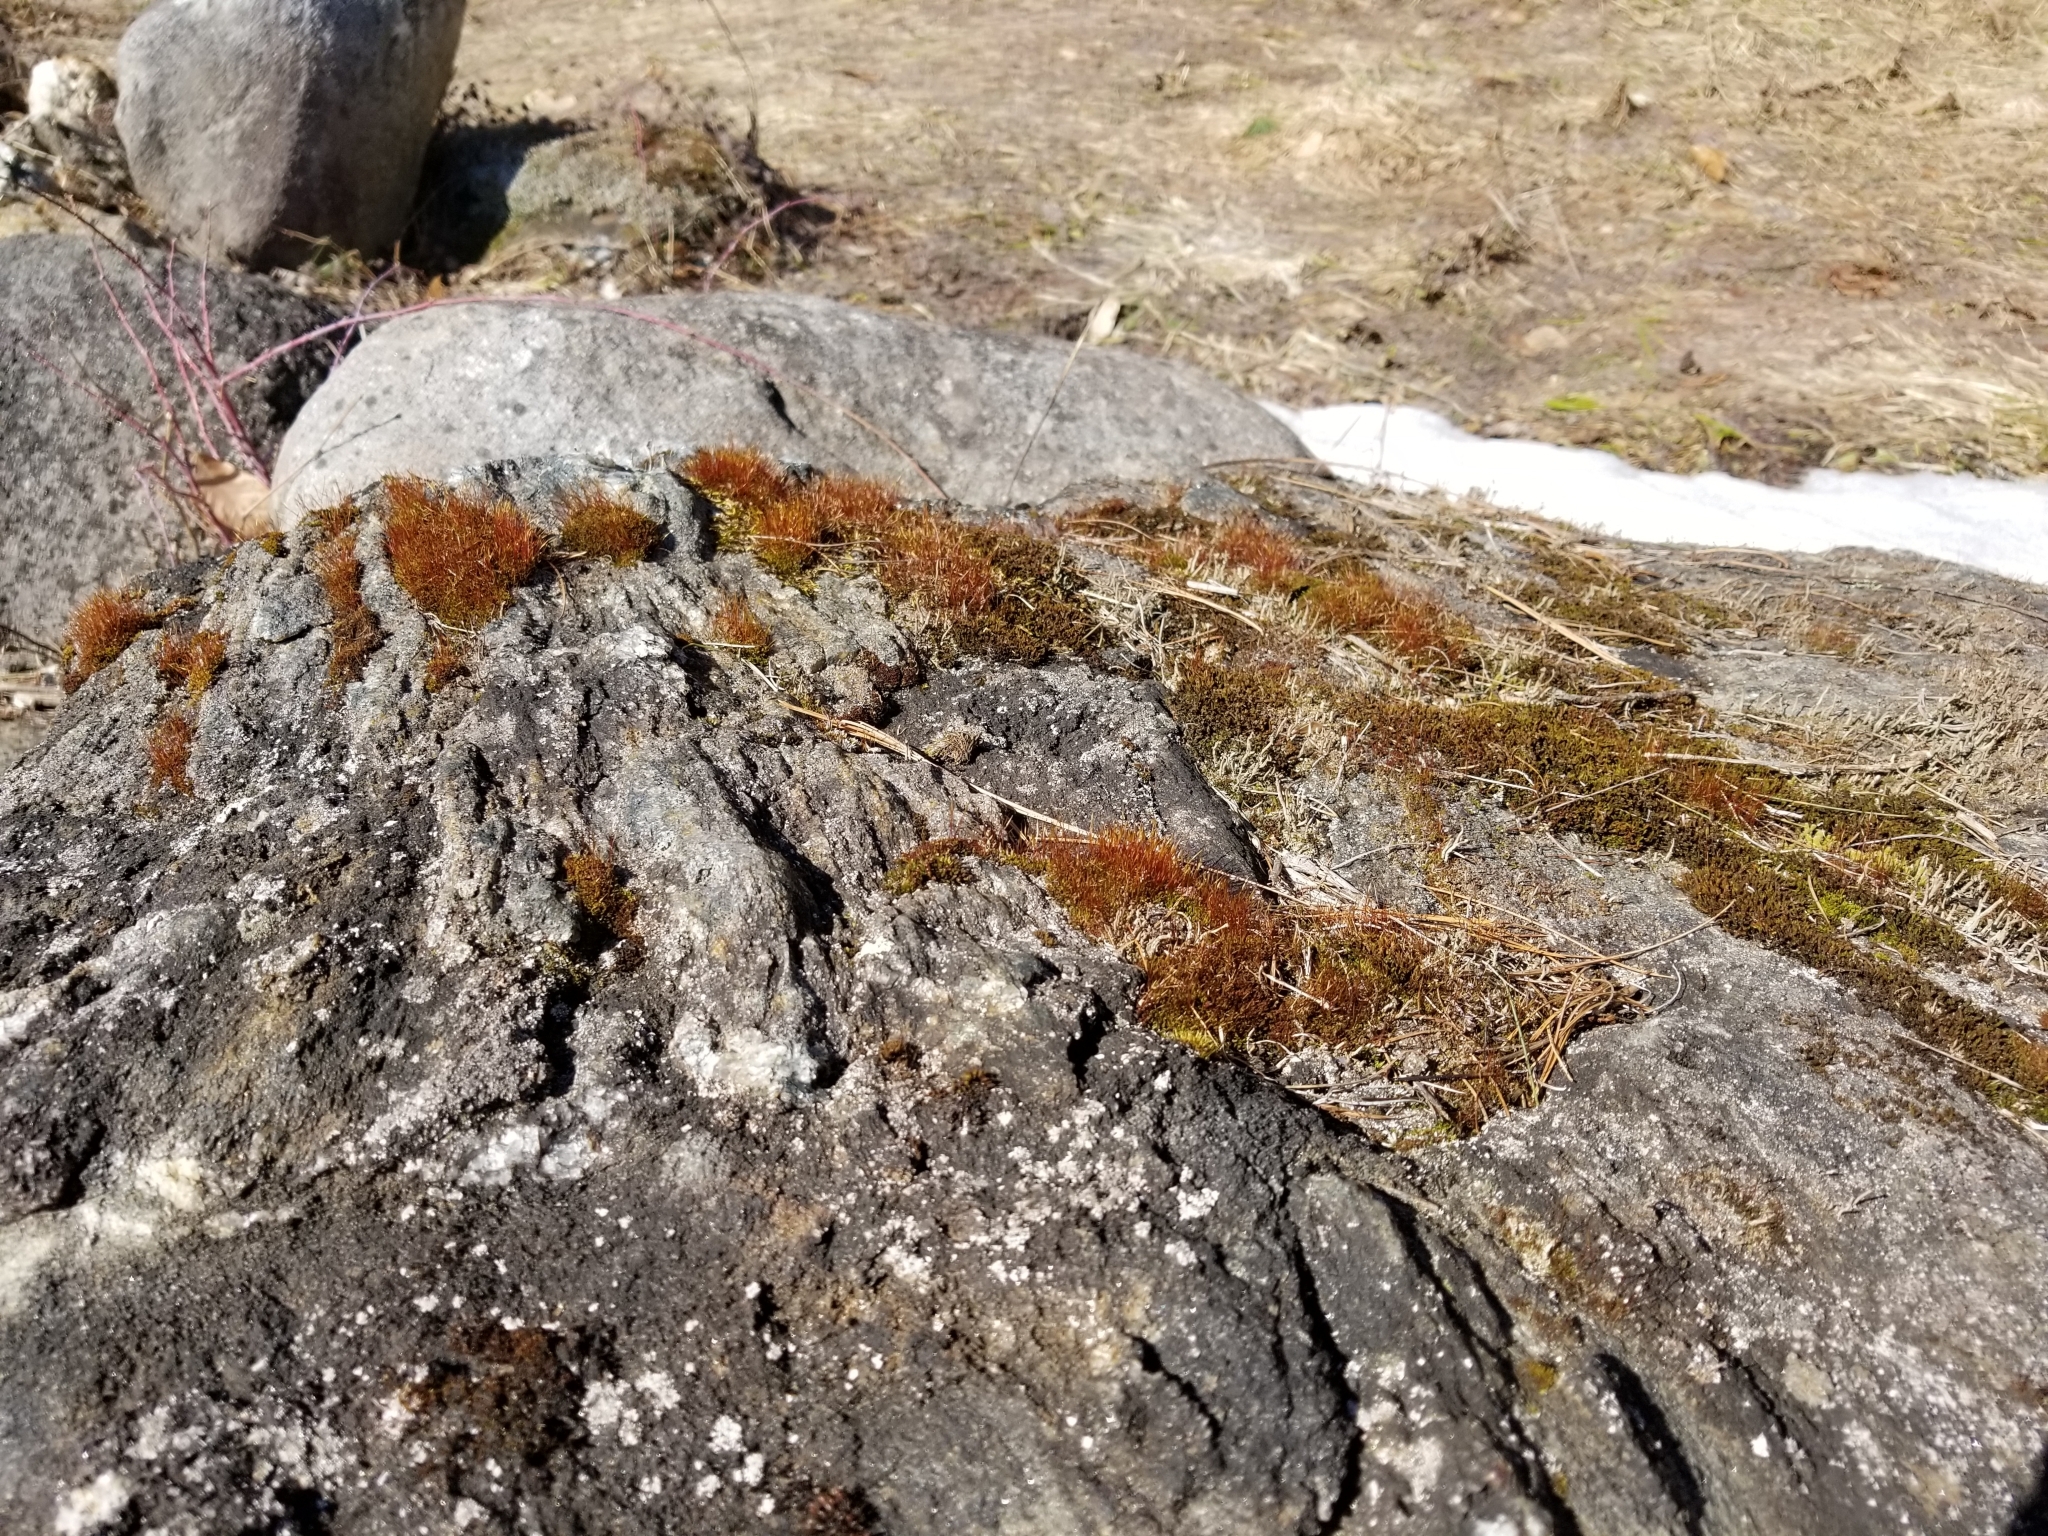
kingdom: Plantae
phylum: Bryophyta
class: Bryopsida
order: Dicranales
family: Ditrichaceae
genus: Ceratodon
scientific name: Ceratodon purpureus
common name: Redshank
